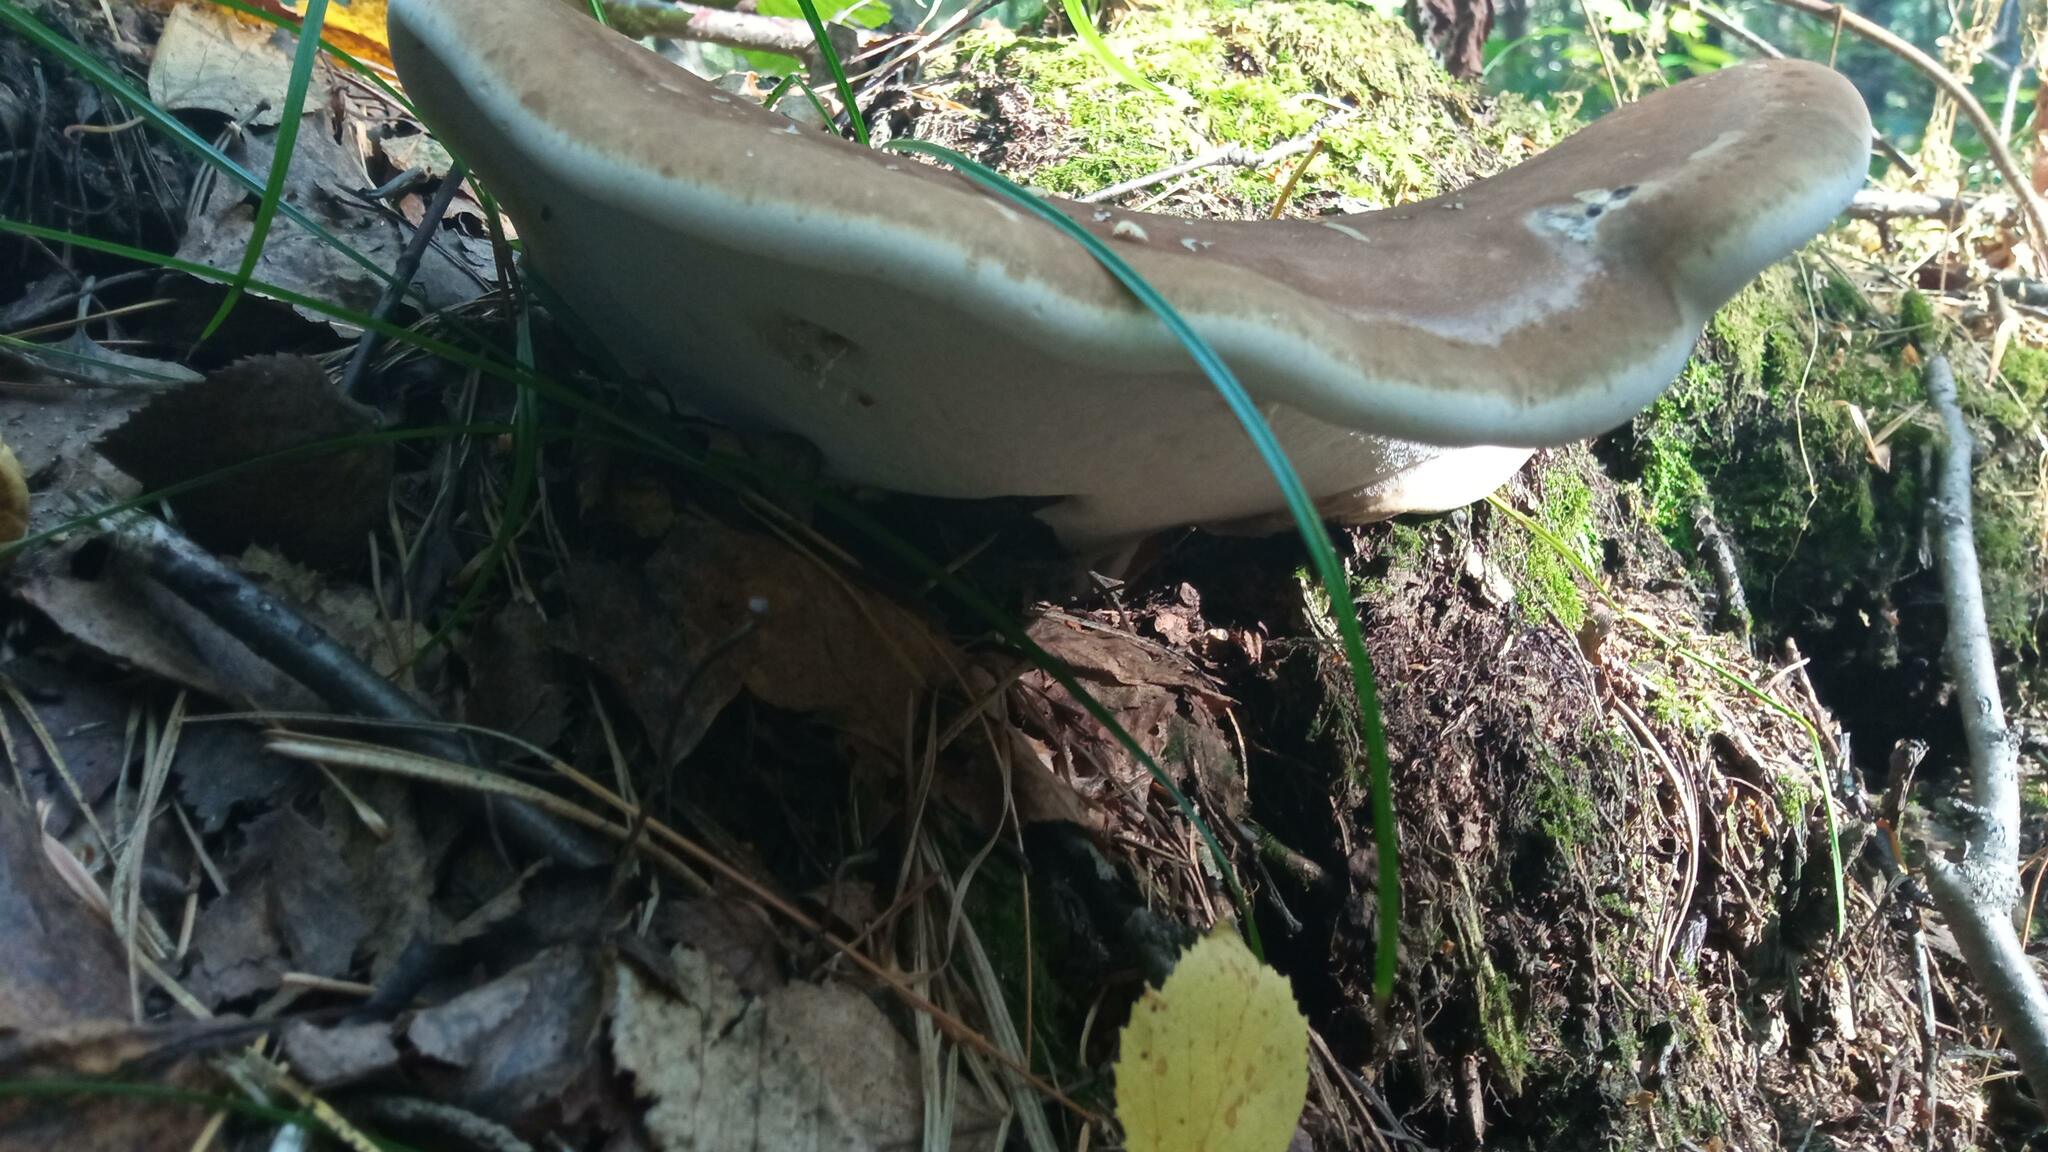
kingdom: Fungi
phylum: Basidiomycota
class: Agaricomycetes
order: Polyporales
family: Fomitopsidaceae
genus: Fomitopsis
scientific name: Fomitopsis betulina
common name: Birch polypore
